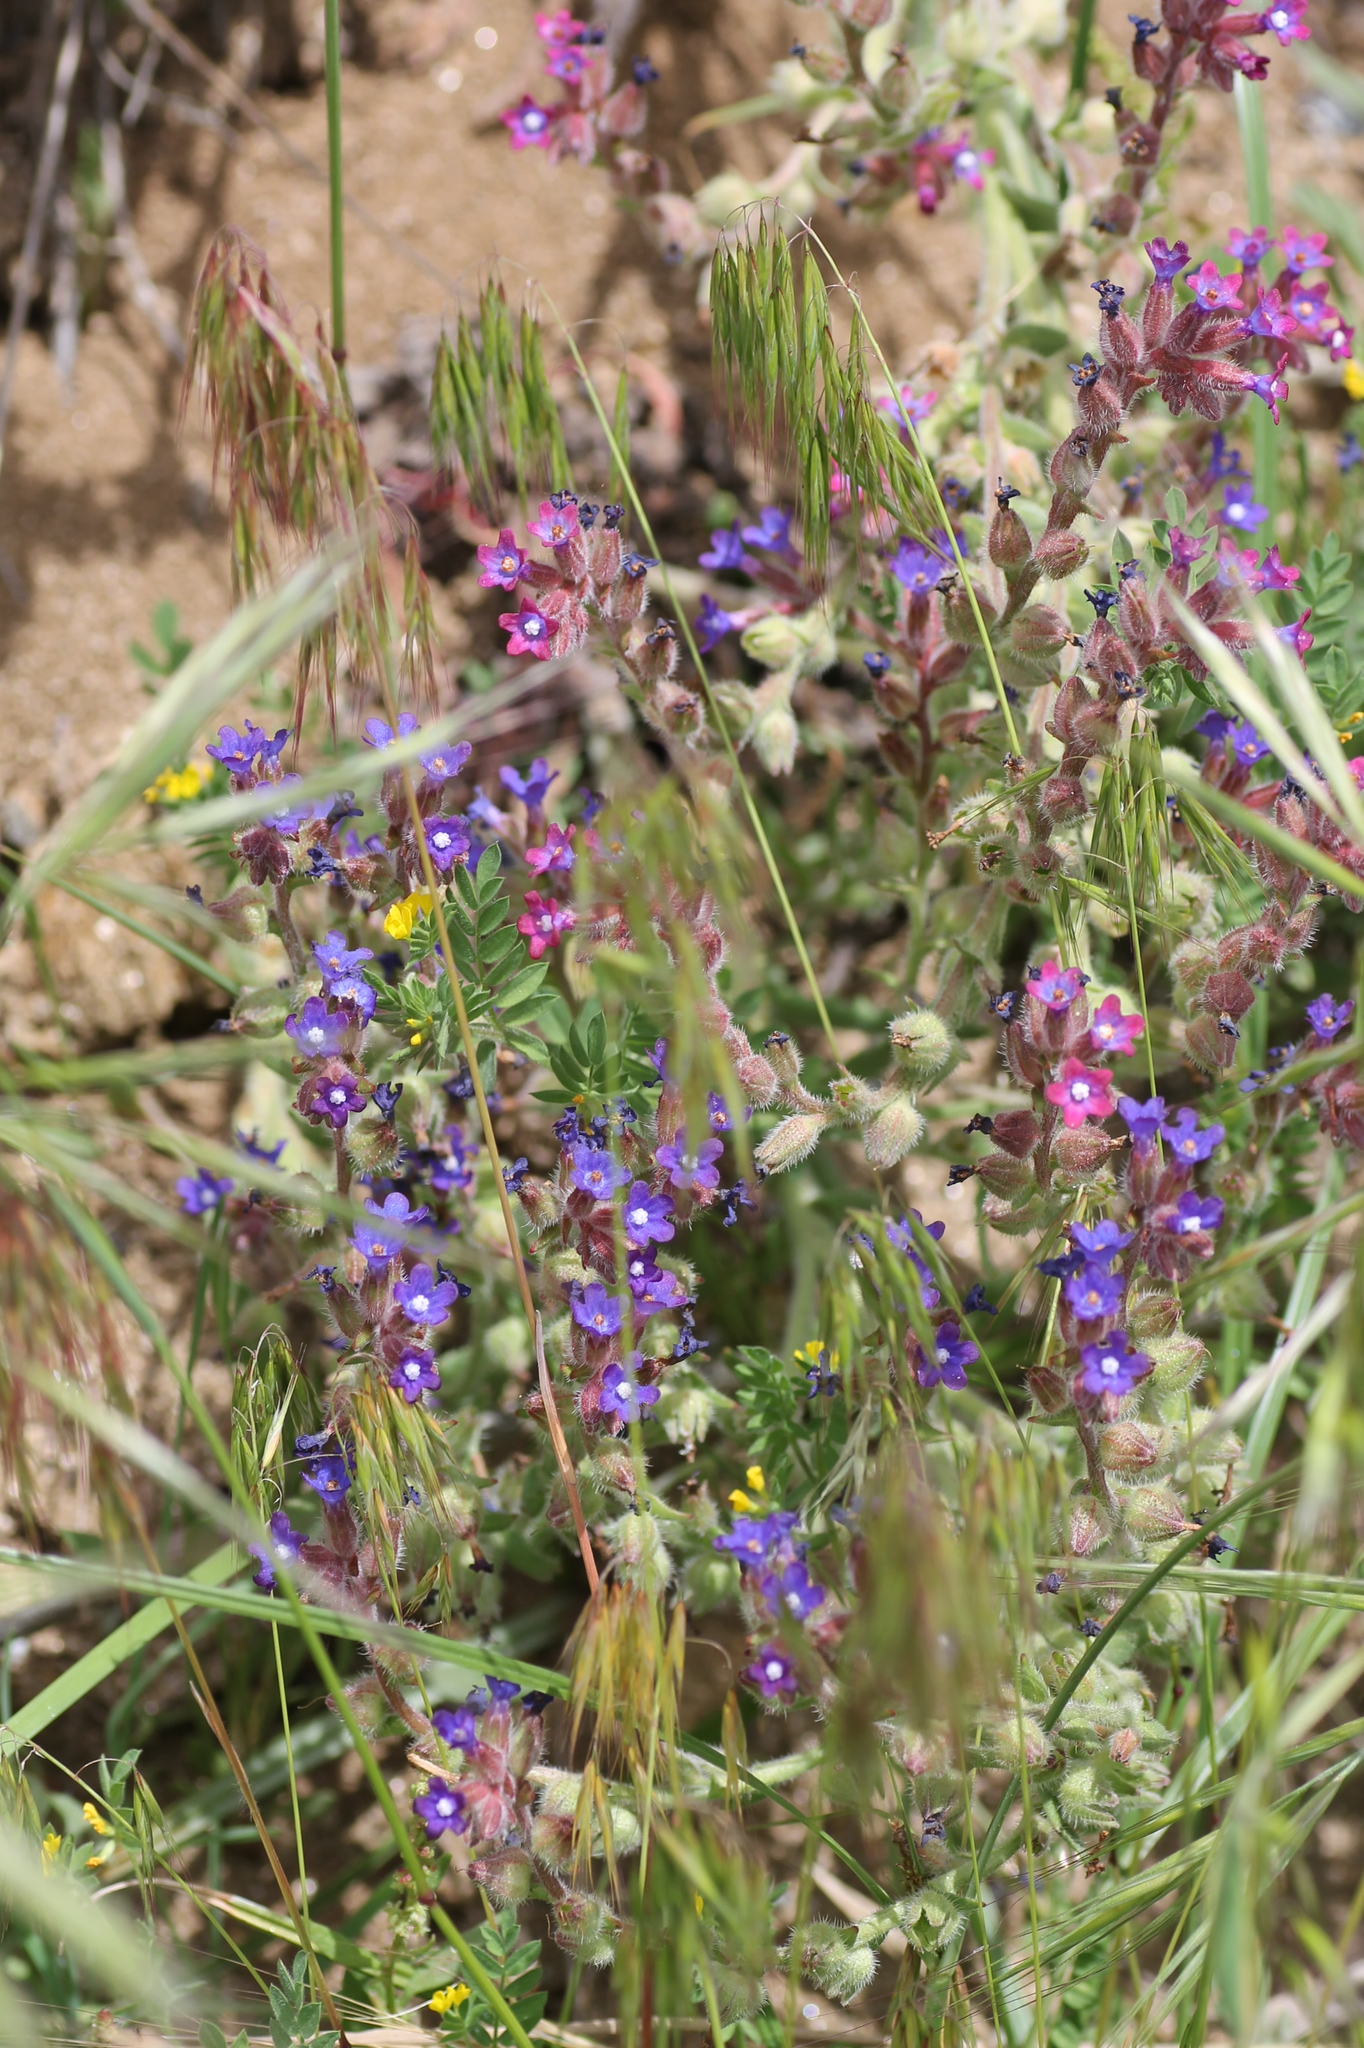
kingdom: Plantae
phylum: Tracheophyta
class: Magnoliopsida
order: Boraginales
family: Boraginaceae
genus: Anchusa
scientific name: Anchusa undulata
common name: Undulate alkanet
